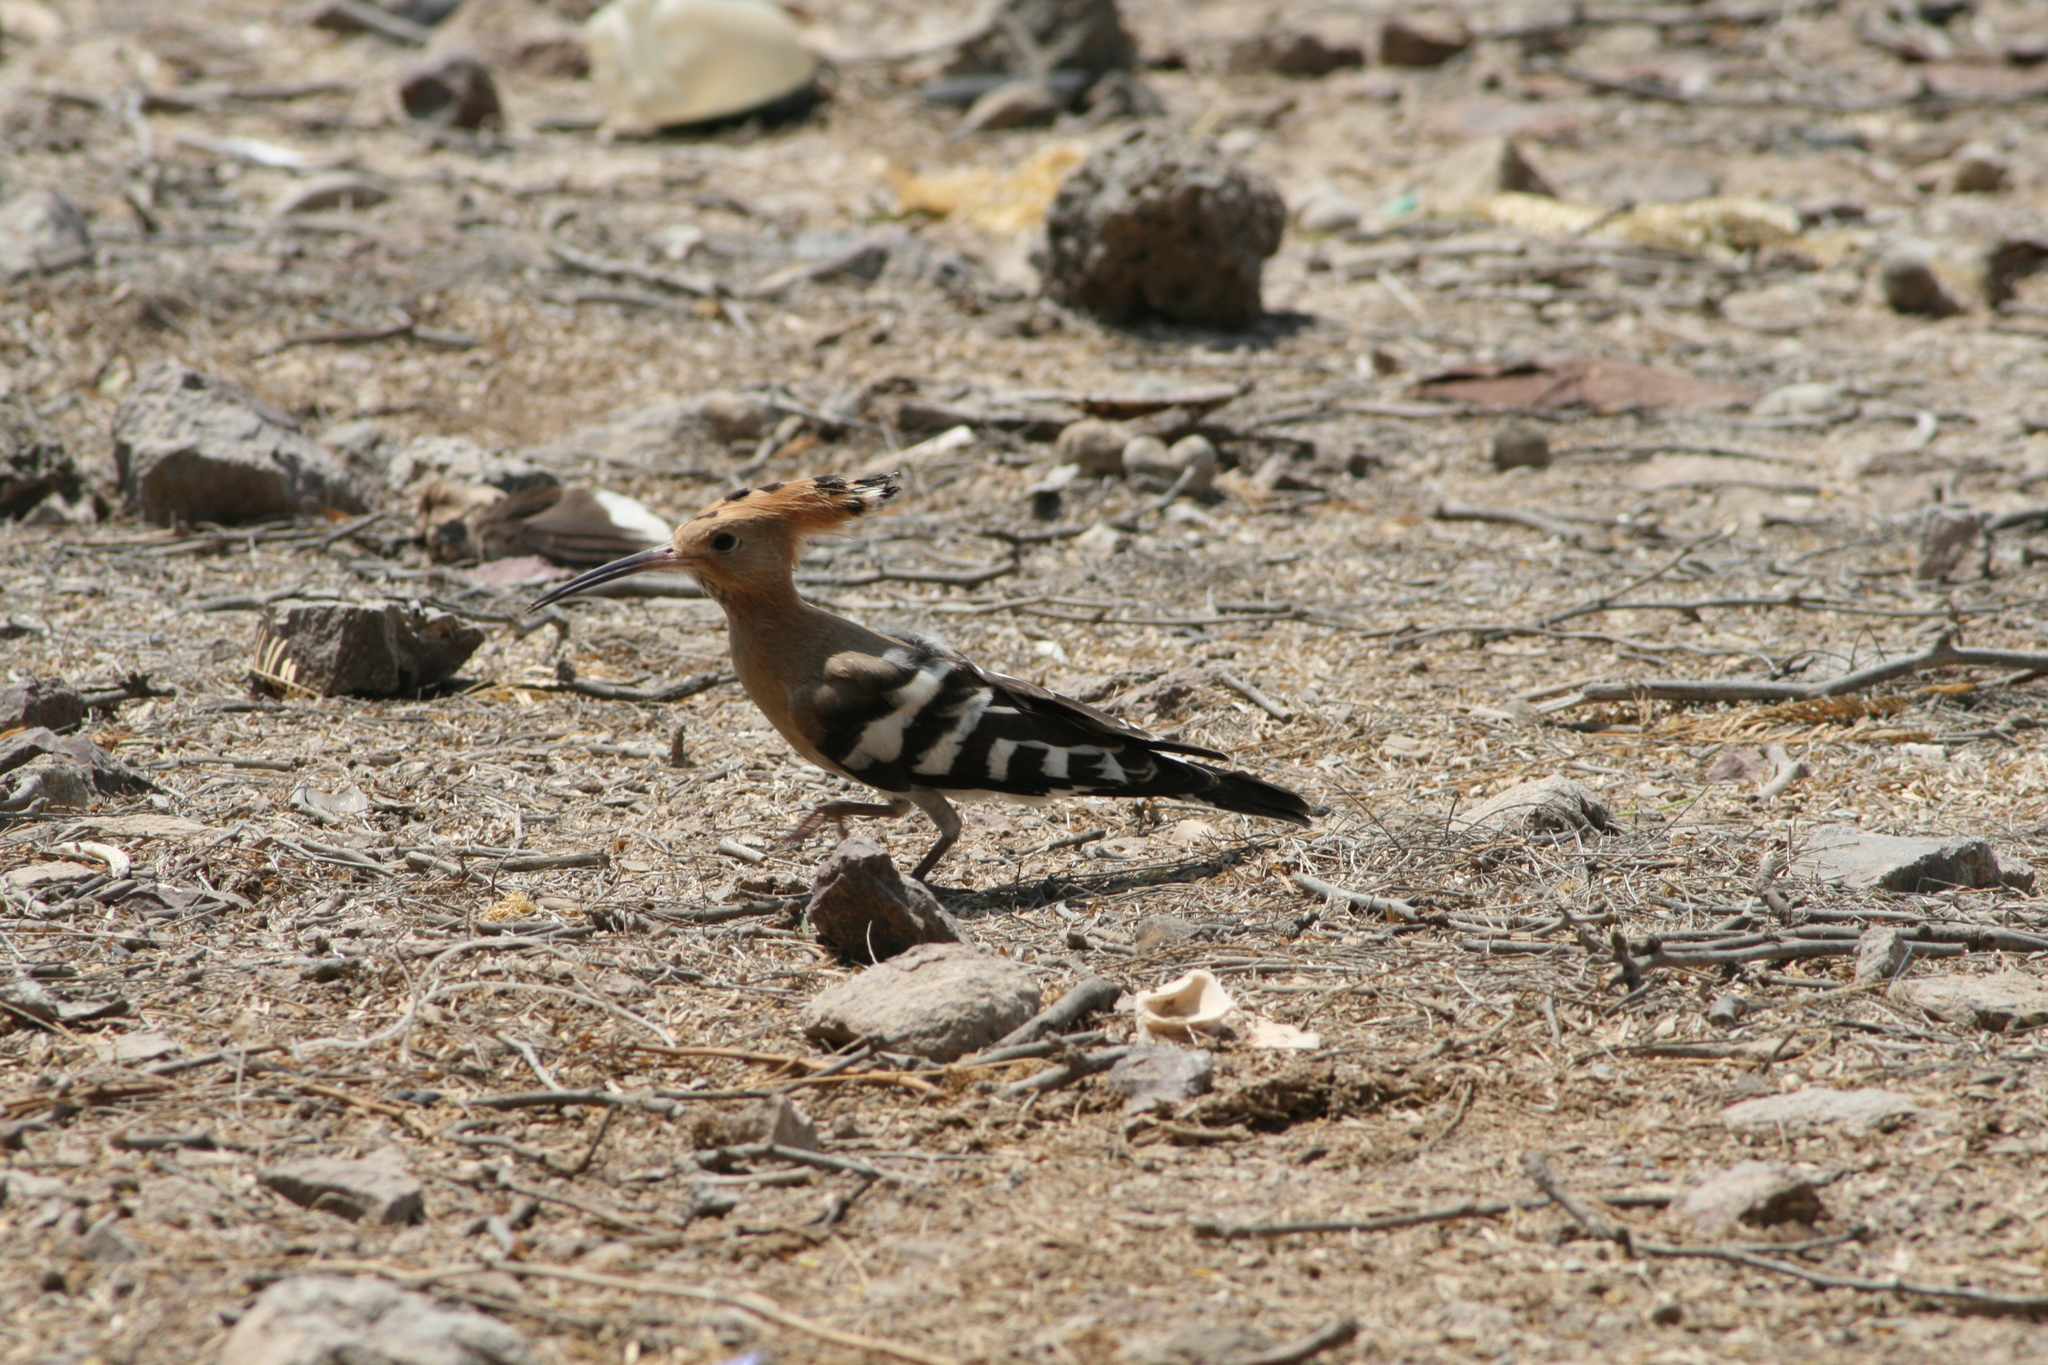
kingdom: Animalia
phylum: Chordata
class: Aves
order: Bucerotiformes
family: Upupidae
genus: Upupa
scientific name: Upupa epops
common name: Eurasian hoopoe
